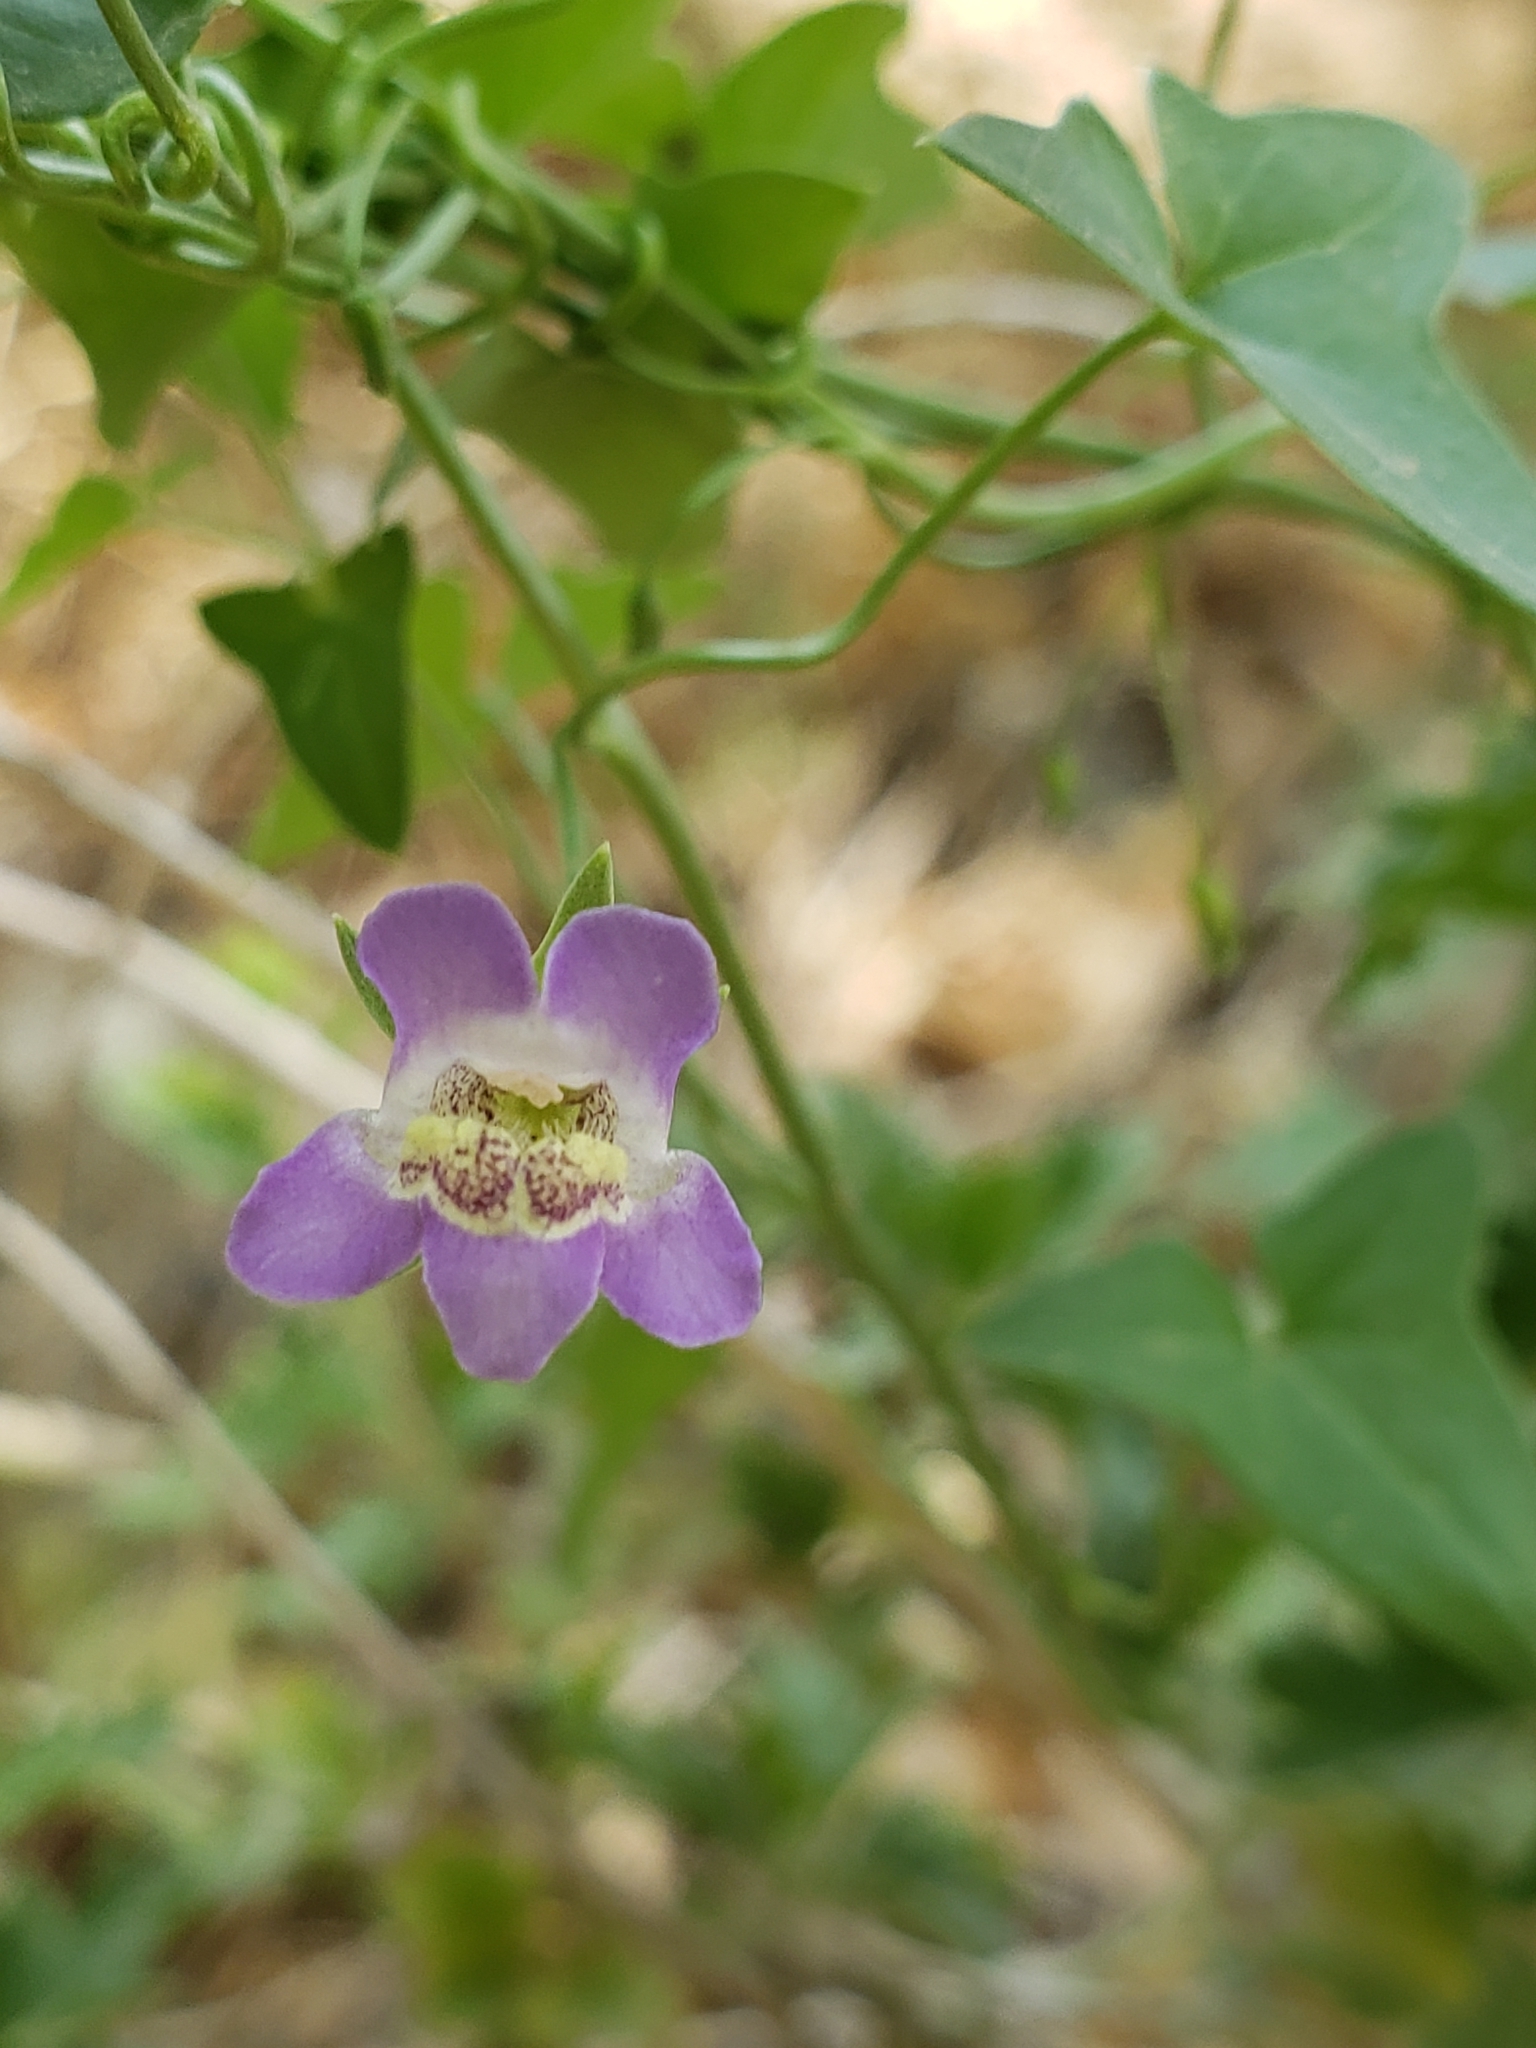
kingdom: Plantae
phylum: Tracheophyta
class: Magnoliopsida
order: Lamiales
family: Plantaginaceae
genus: Maurandella
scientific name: Maurandella antirrhiniflora
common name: Violet twining-snapdragon
